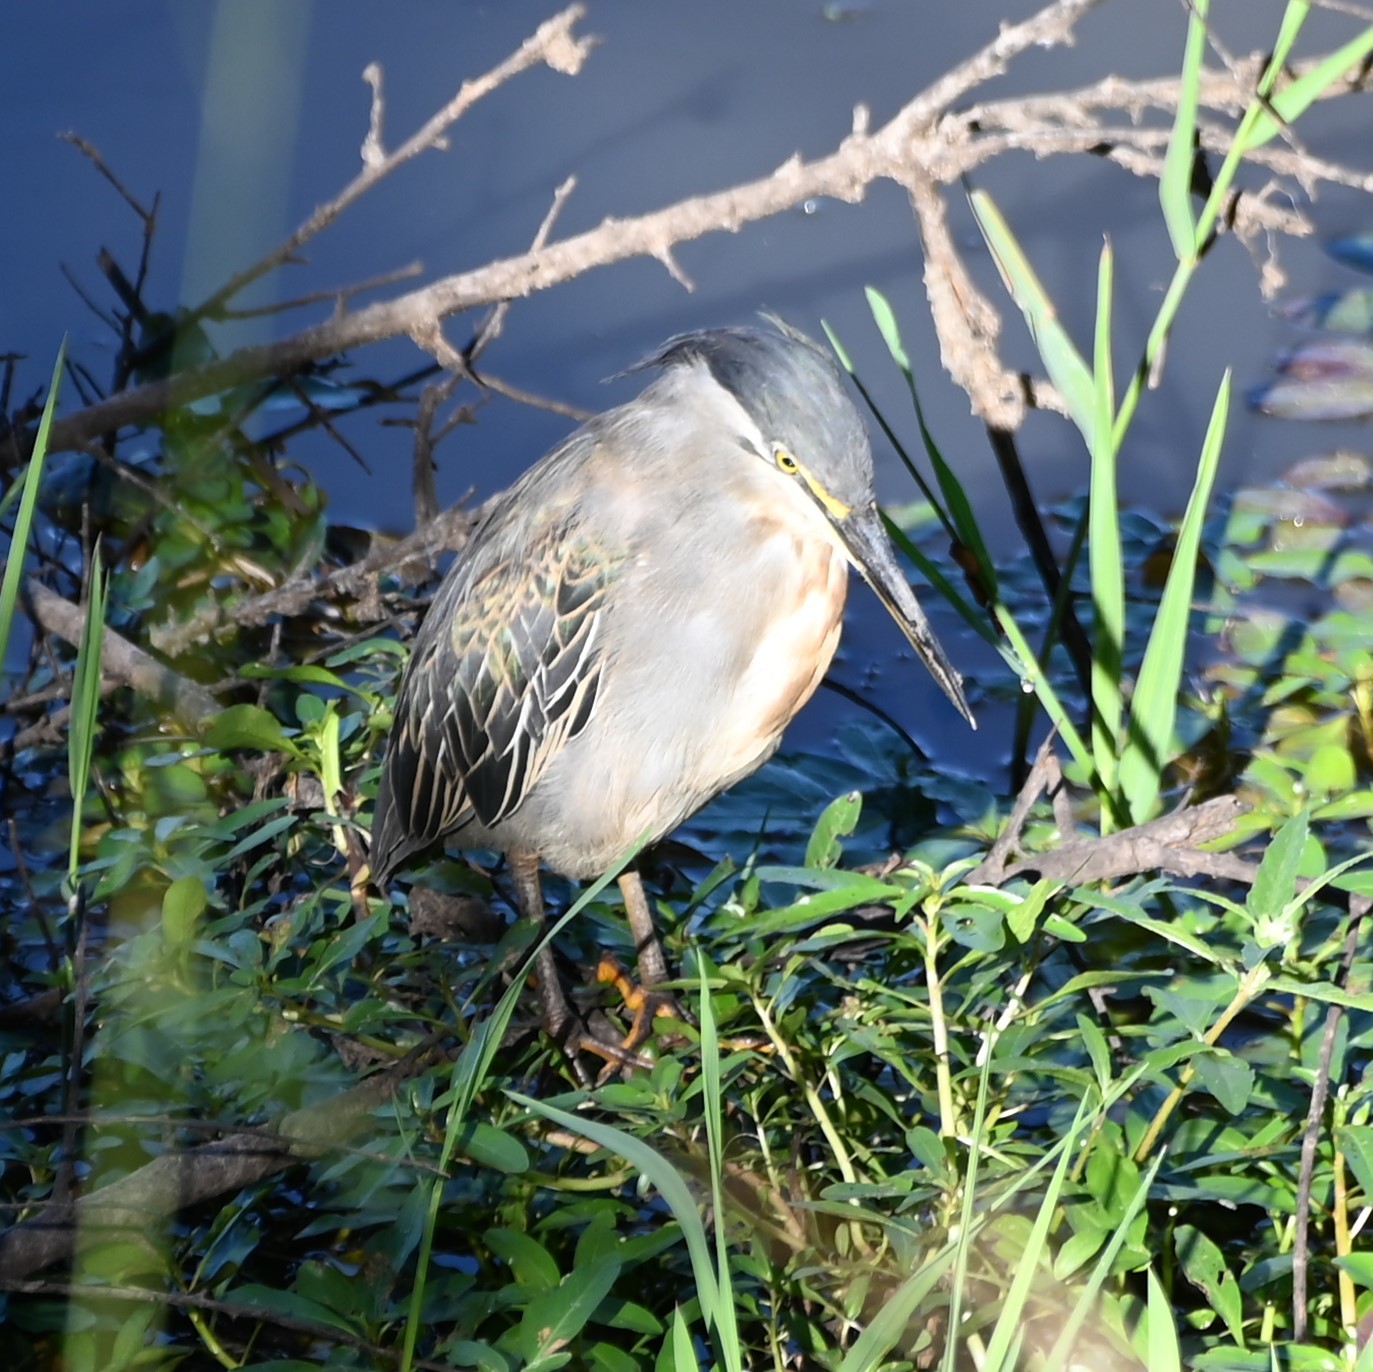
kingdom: Animalia
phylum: Chordata
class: Aves
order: Pelecaniformes
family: Ardeidae
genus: Butorides
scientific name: Butorides striata
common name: Striated heron
